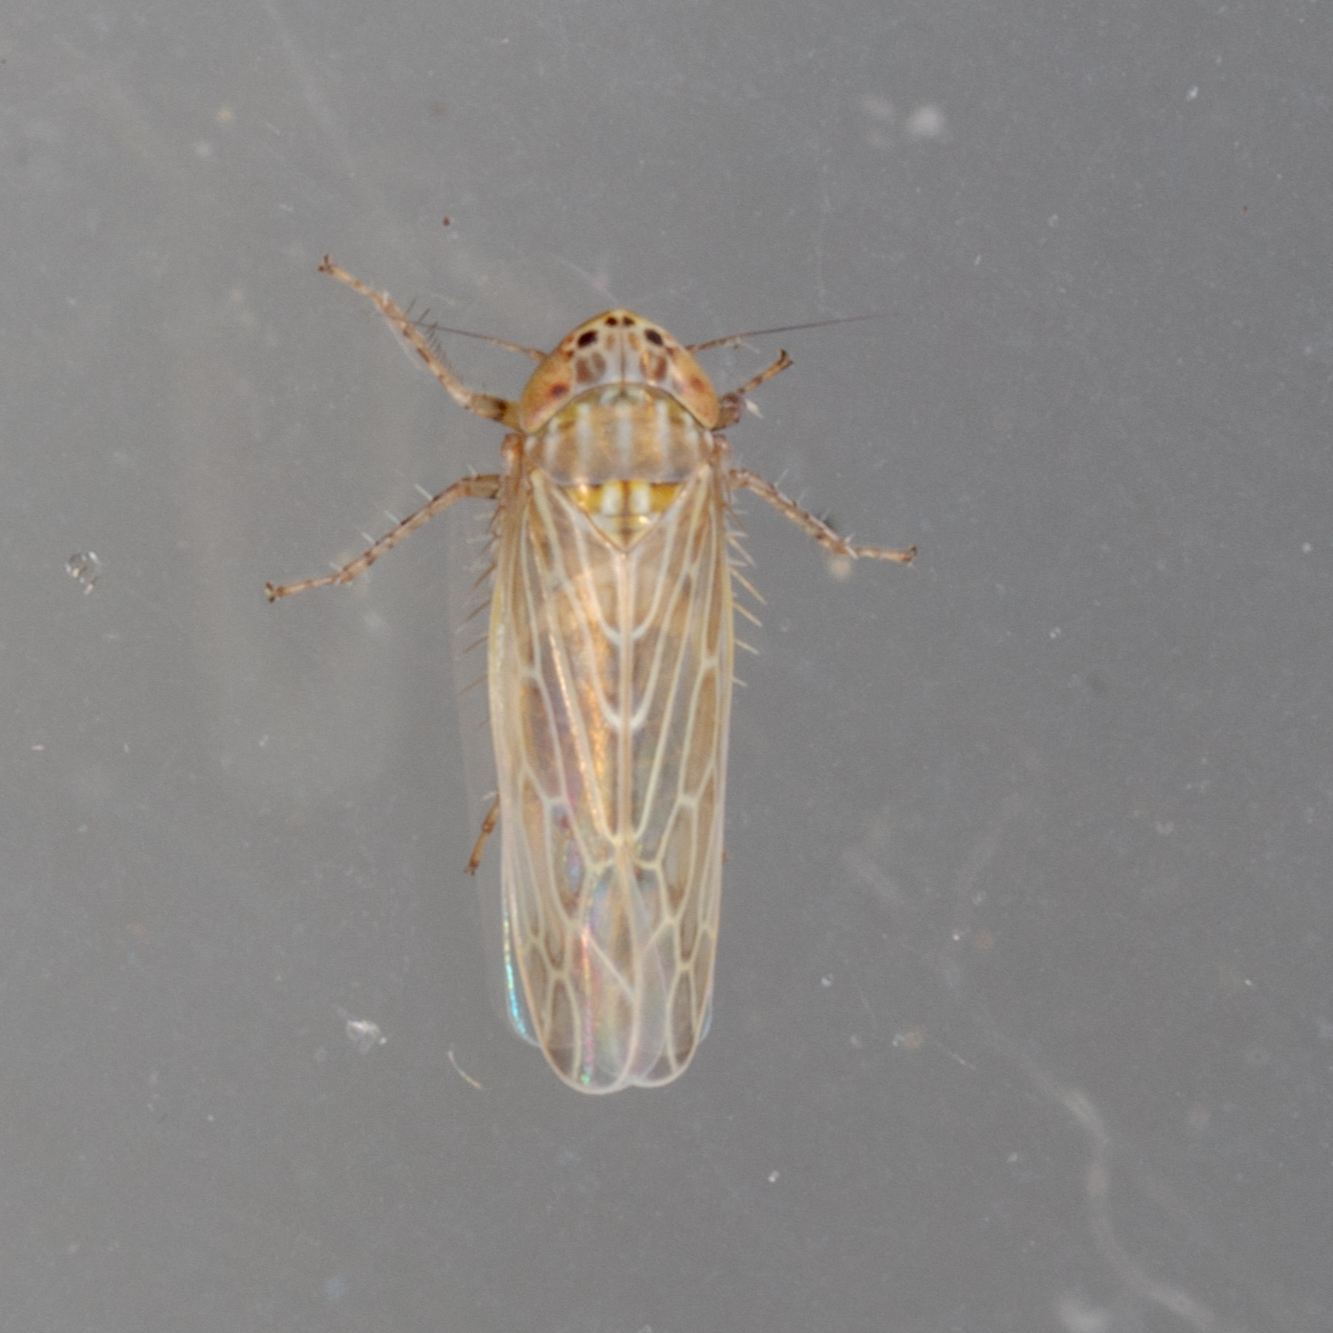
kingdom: Animalia
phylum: Arthropoda
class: Insecta
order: Hemiptera
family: Cicadellidae
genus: Graminella
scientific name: Graminella sonora
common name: Lesser lawn leafhopper
